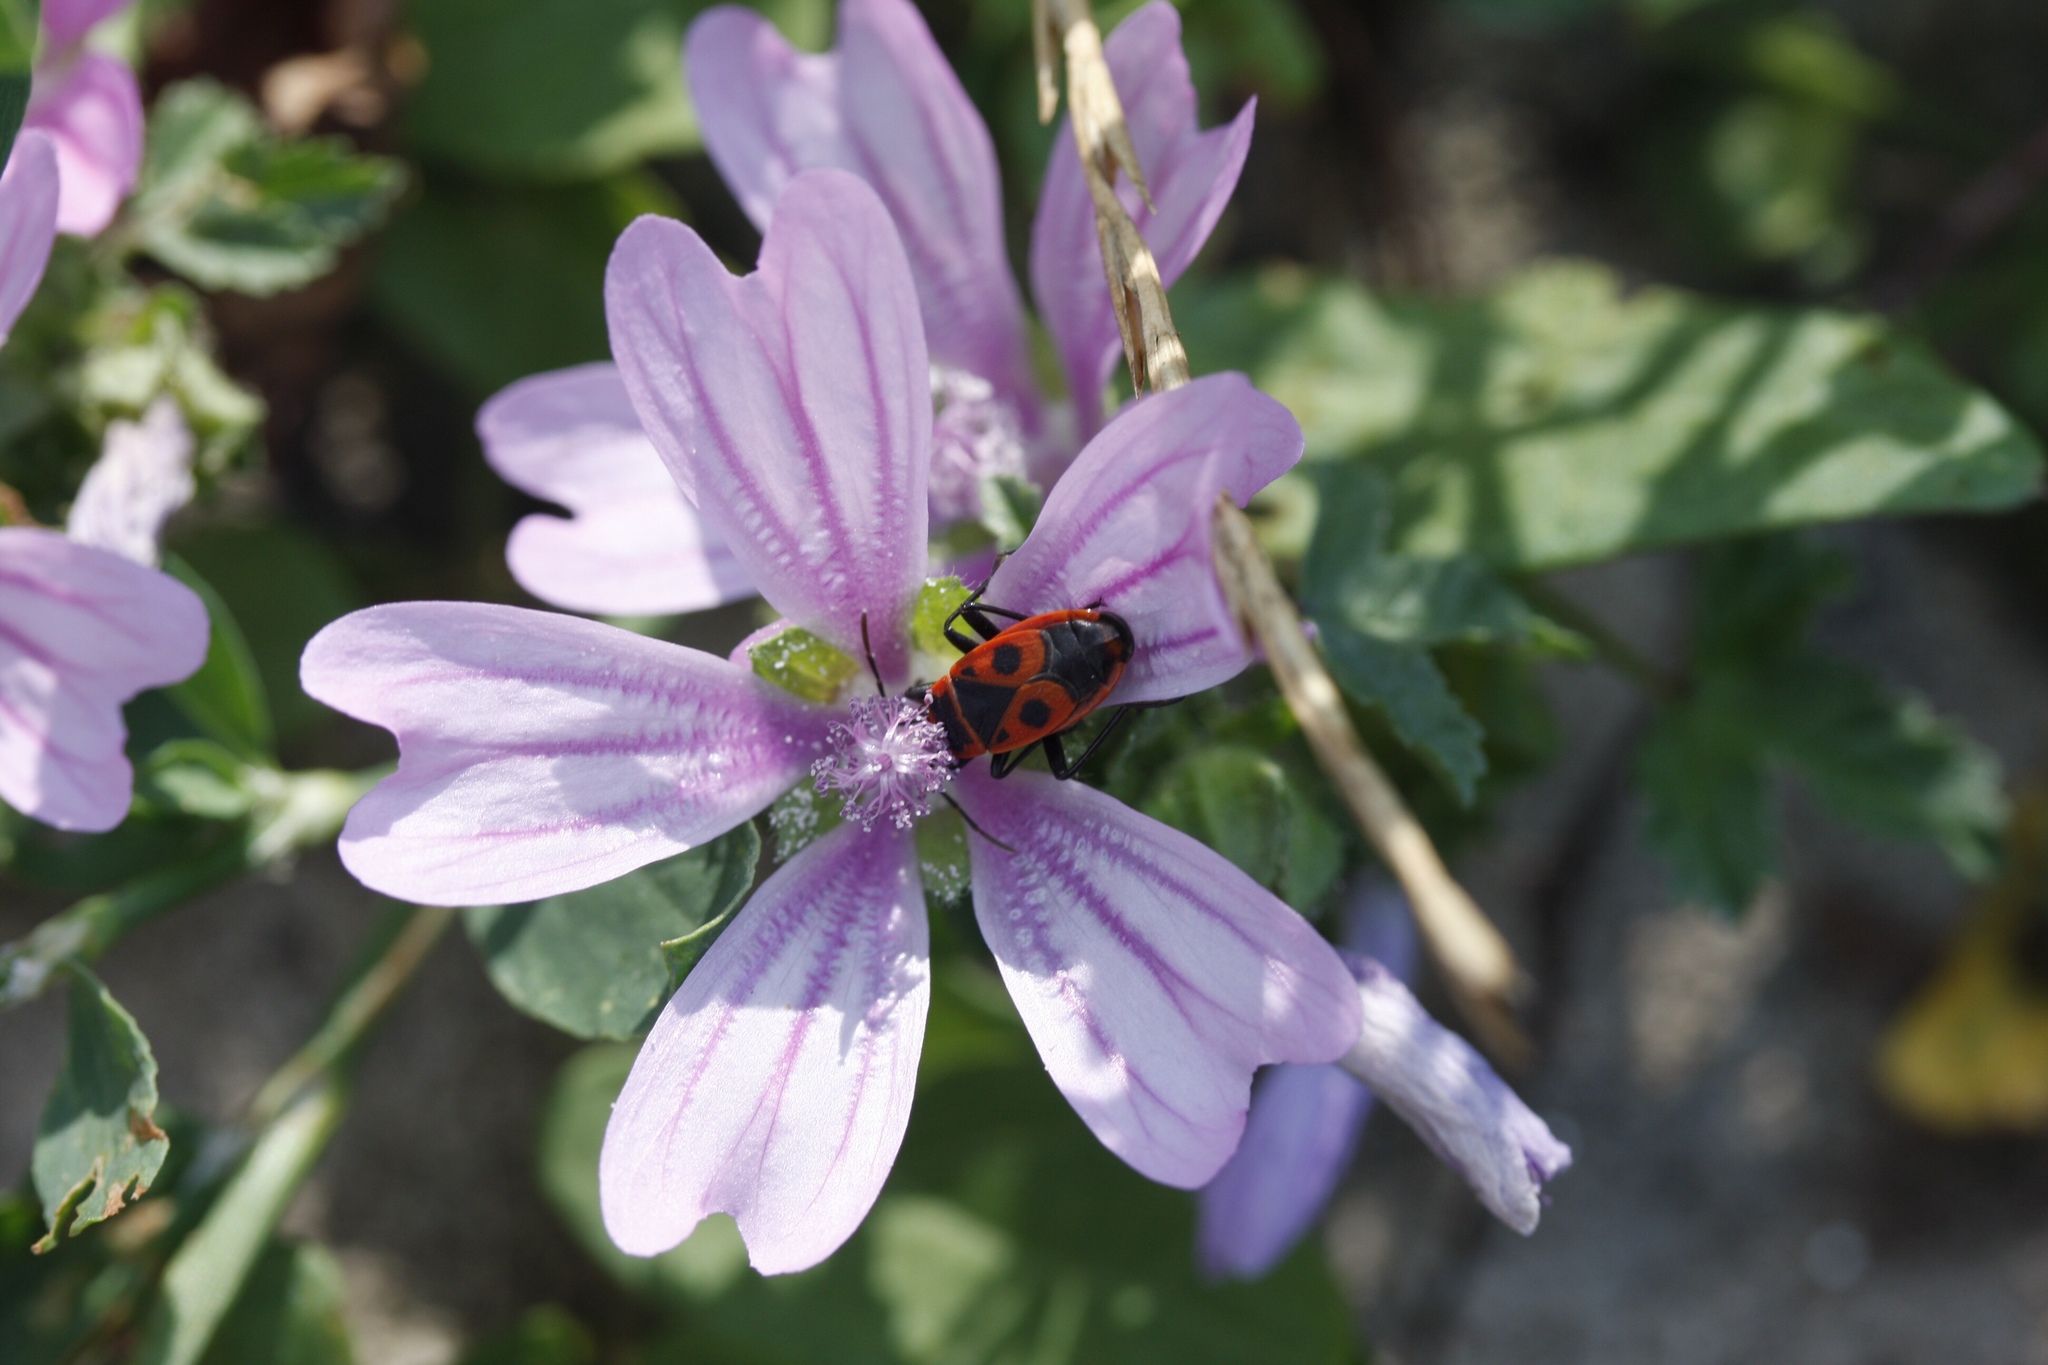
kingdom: Animalia
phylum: Arthropoda
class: Insecta
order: Hemiptera
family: Pyrrhocoridae
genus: Pyrrhocoris
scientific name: Pyrrhocoris apterus
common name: Firebug
